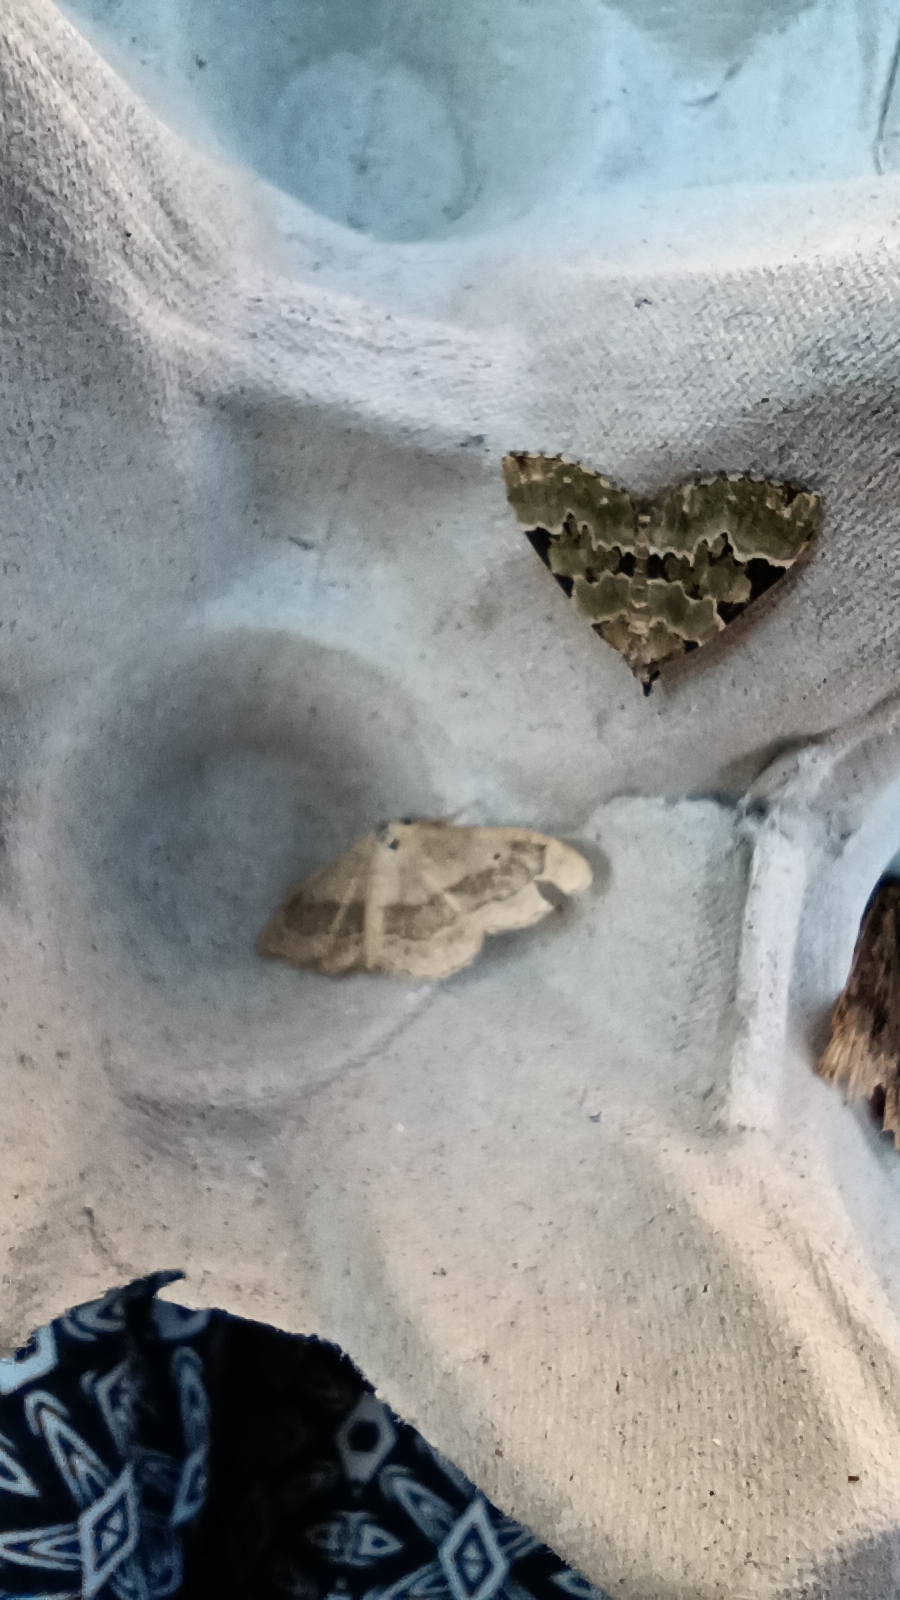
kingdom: Animalia
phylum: Arthropoda
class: Insecta
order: Lepidoptera
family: Geometridae
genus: Idaea
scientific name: Idaea aversata
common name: Riband wave
